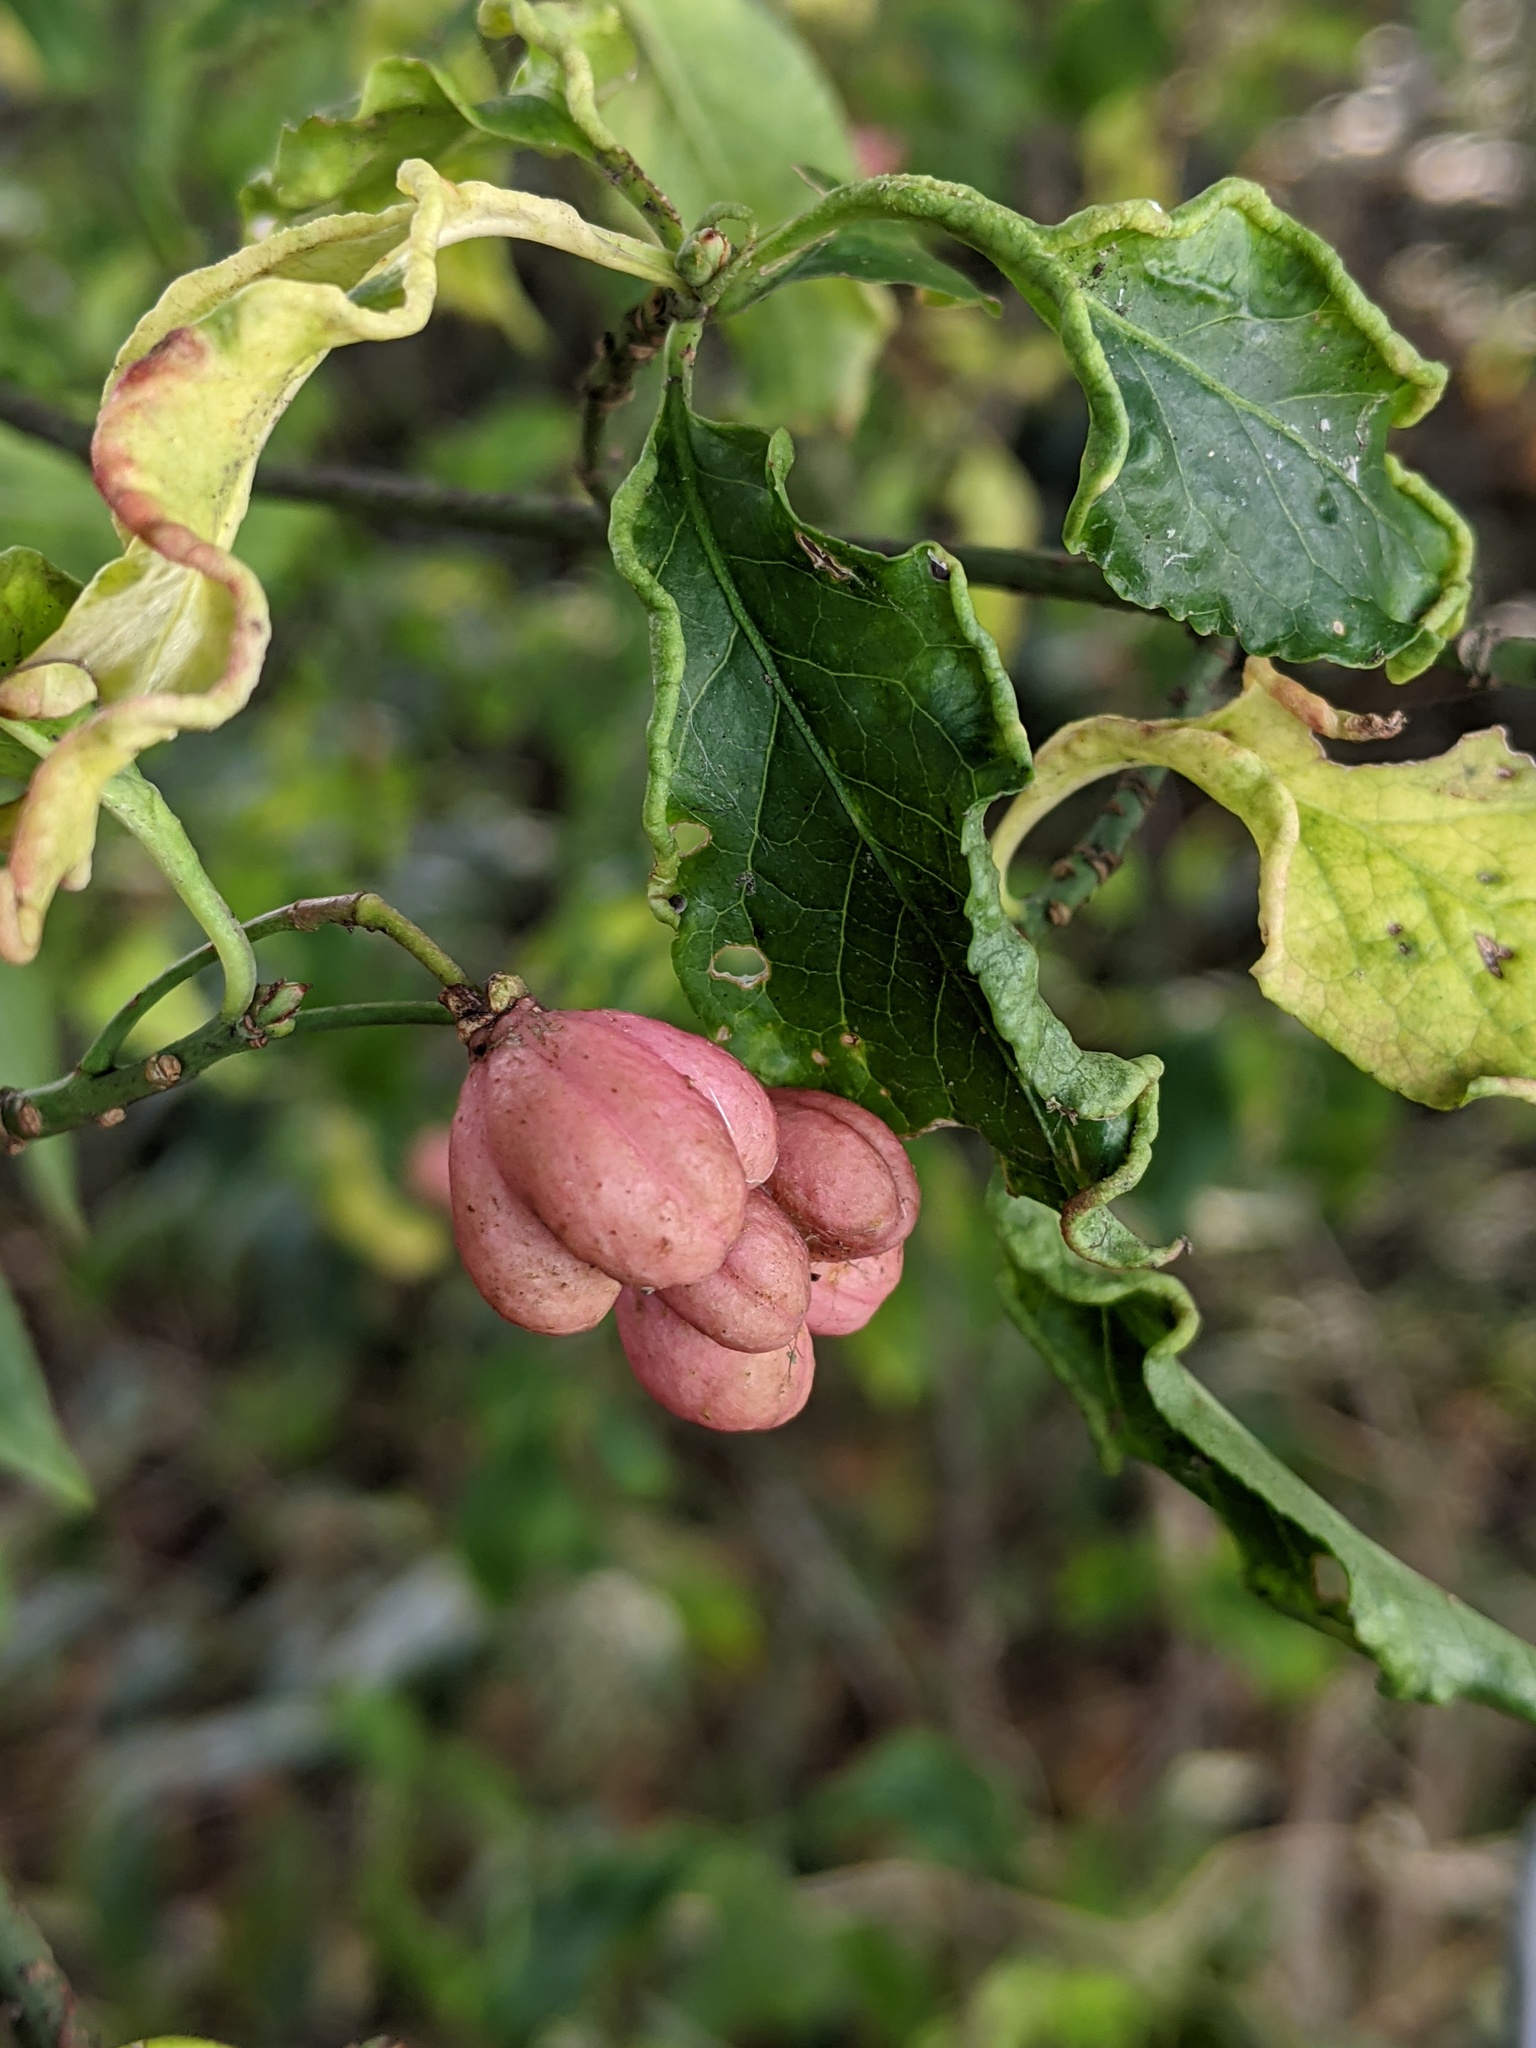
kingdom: Plantae
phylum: Tracheophyta
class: Magnoliopsida
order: Celastrales
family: Celastraceae
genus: Euonymus
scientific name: Euonymus europaeus
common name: Spindle
